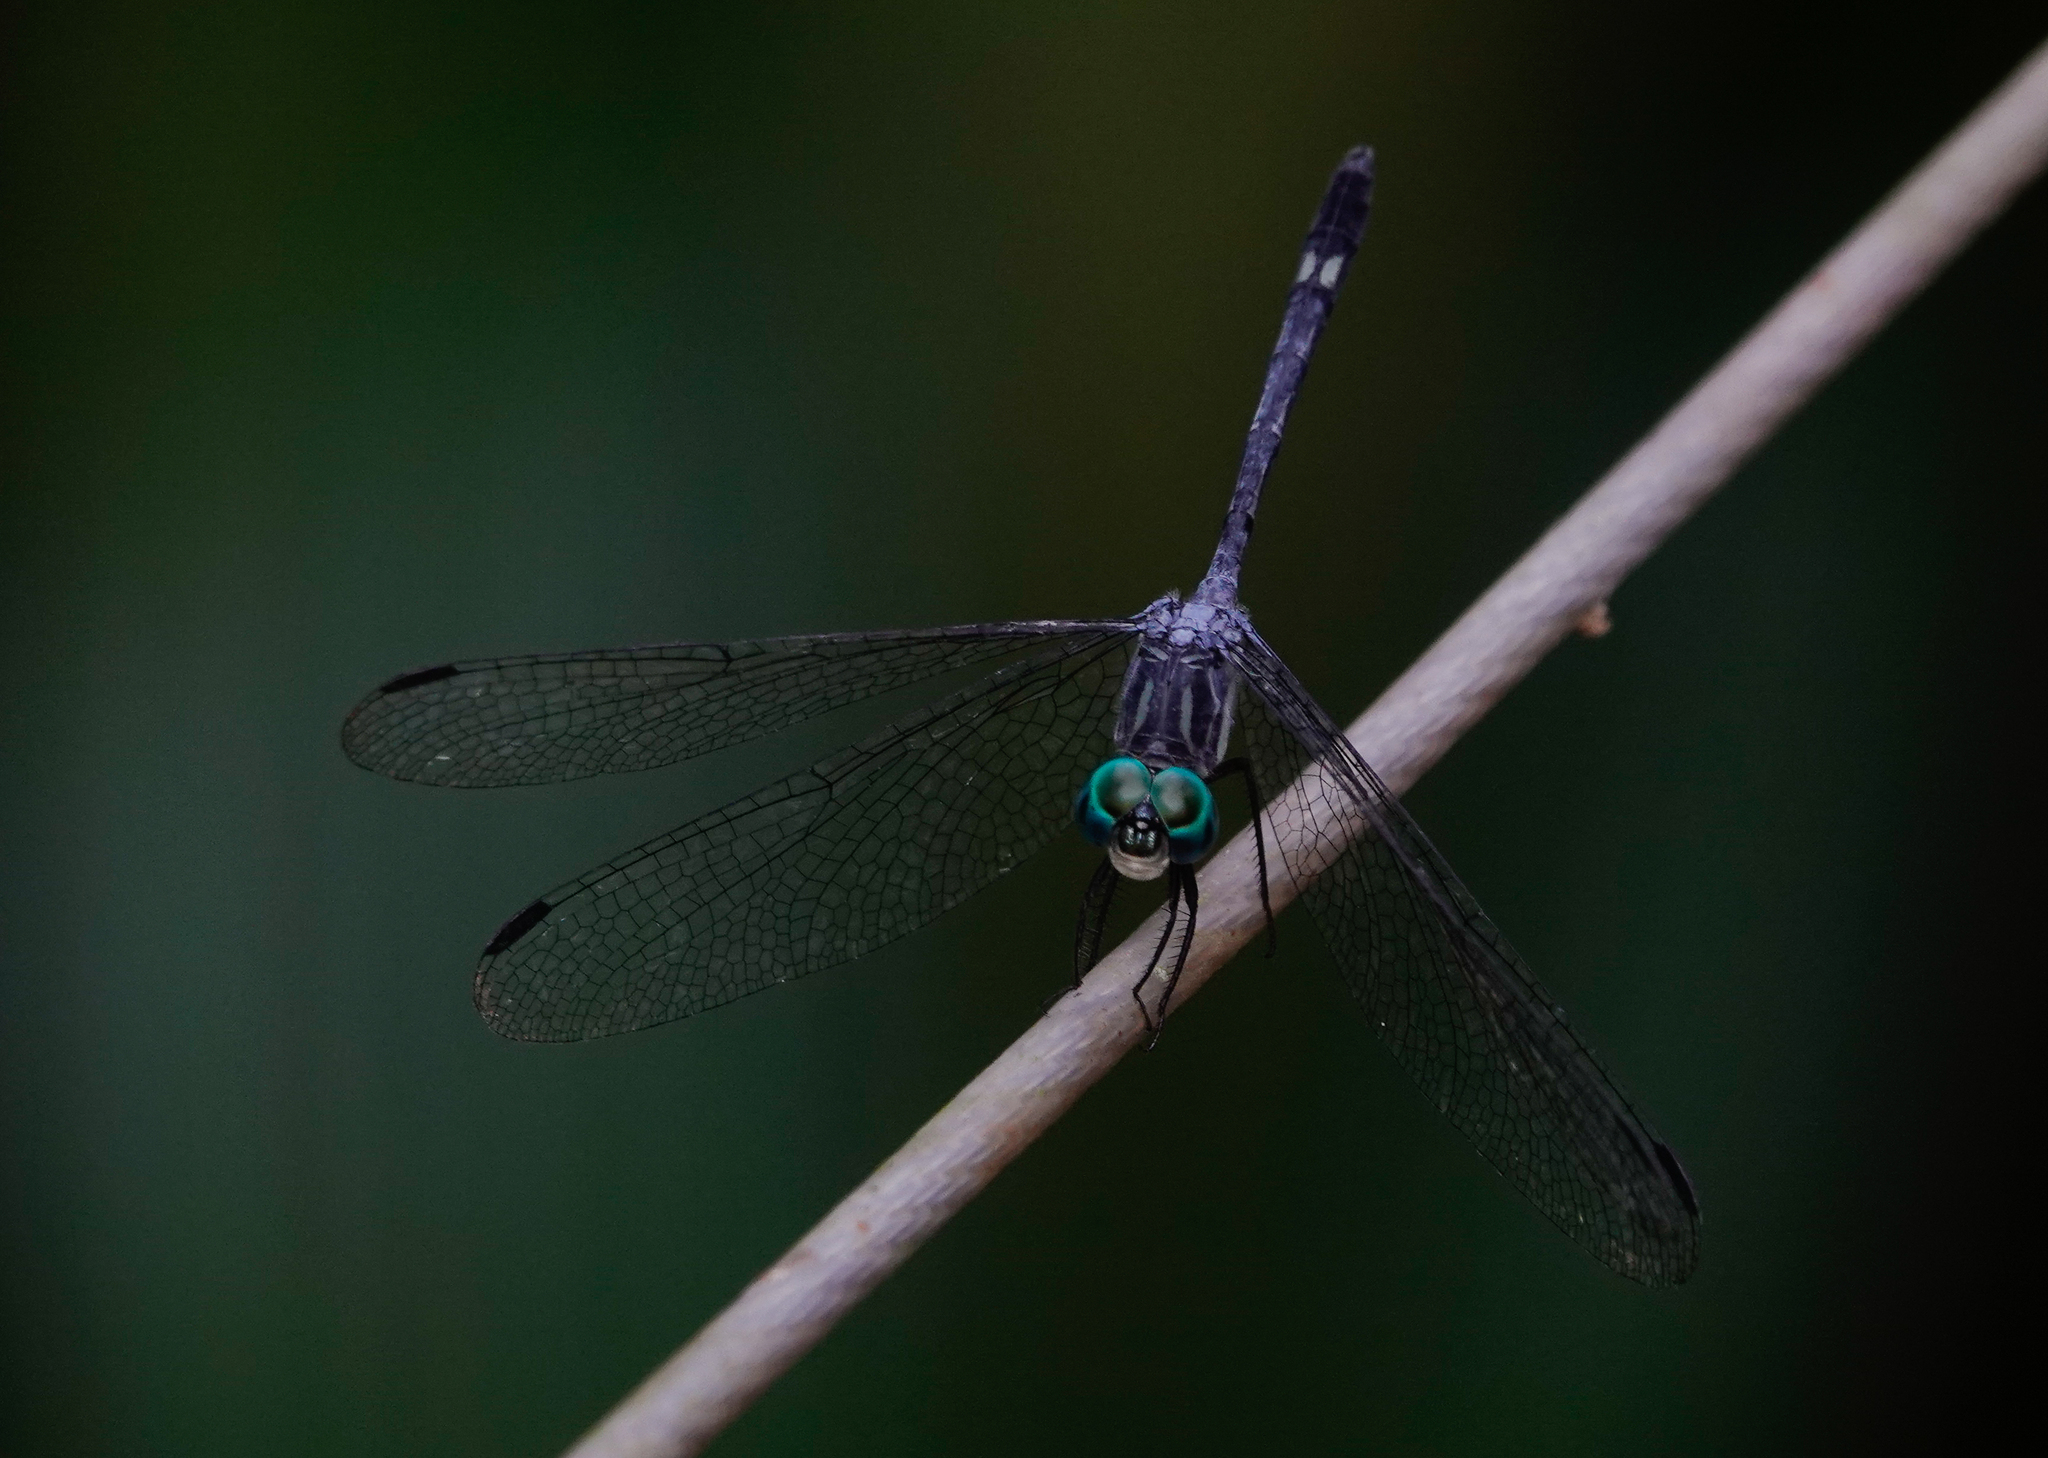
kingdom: Animalia
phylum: Arthropoda
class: Insecta
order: Odonata
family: Libellulidae
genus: Micrathyria
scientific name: Micrathyria hypodidyma
